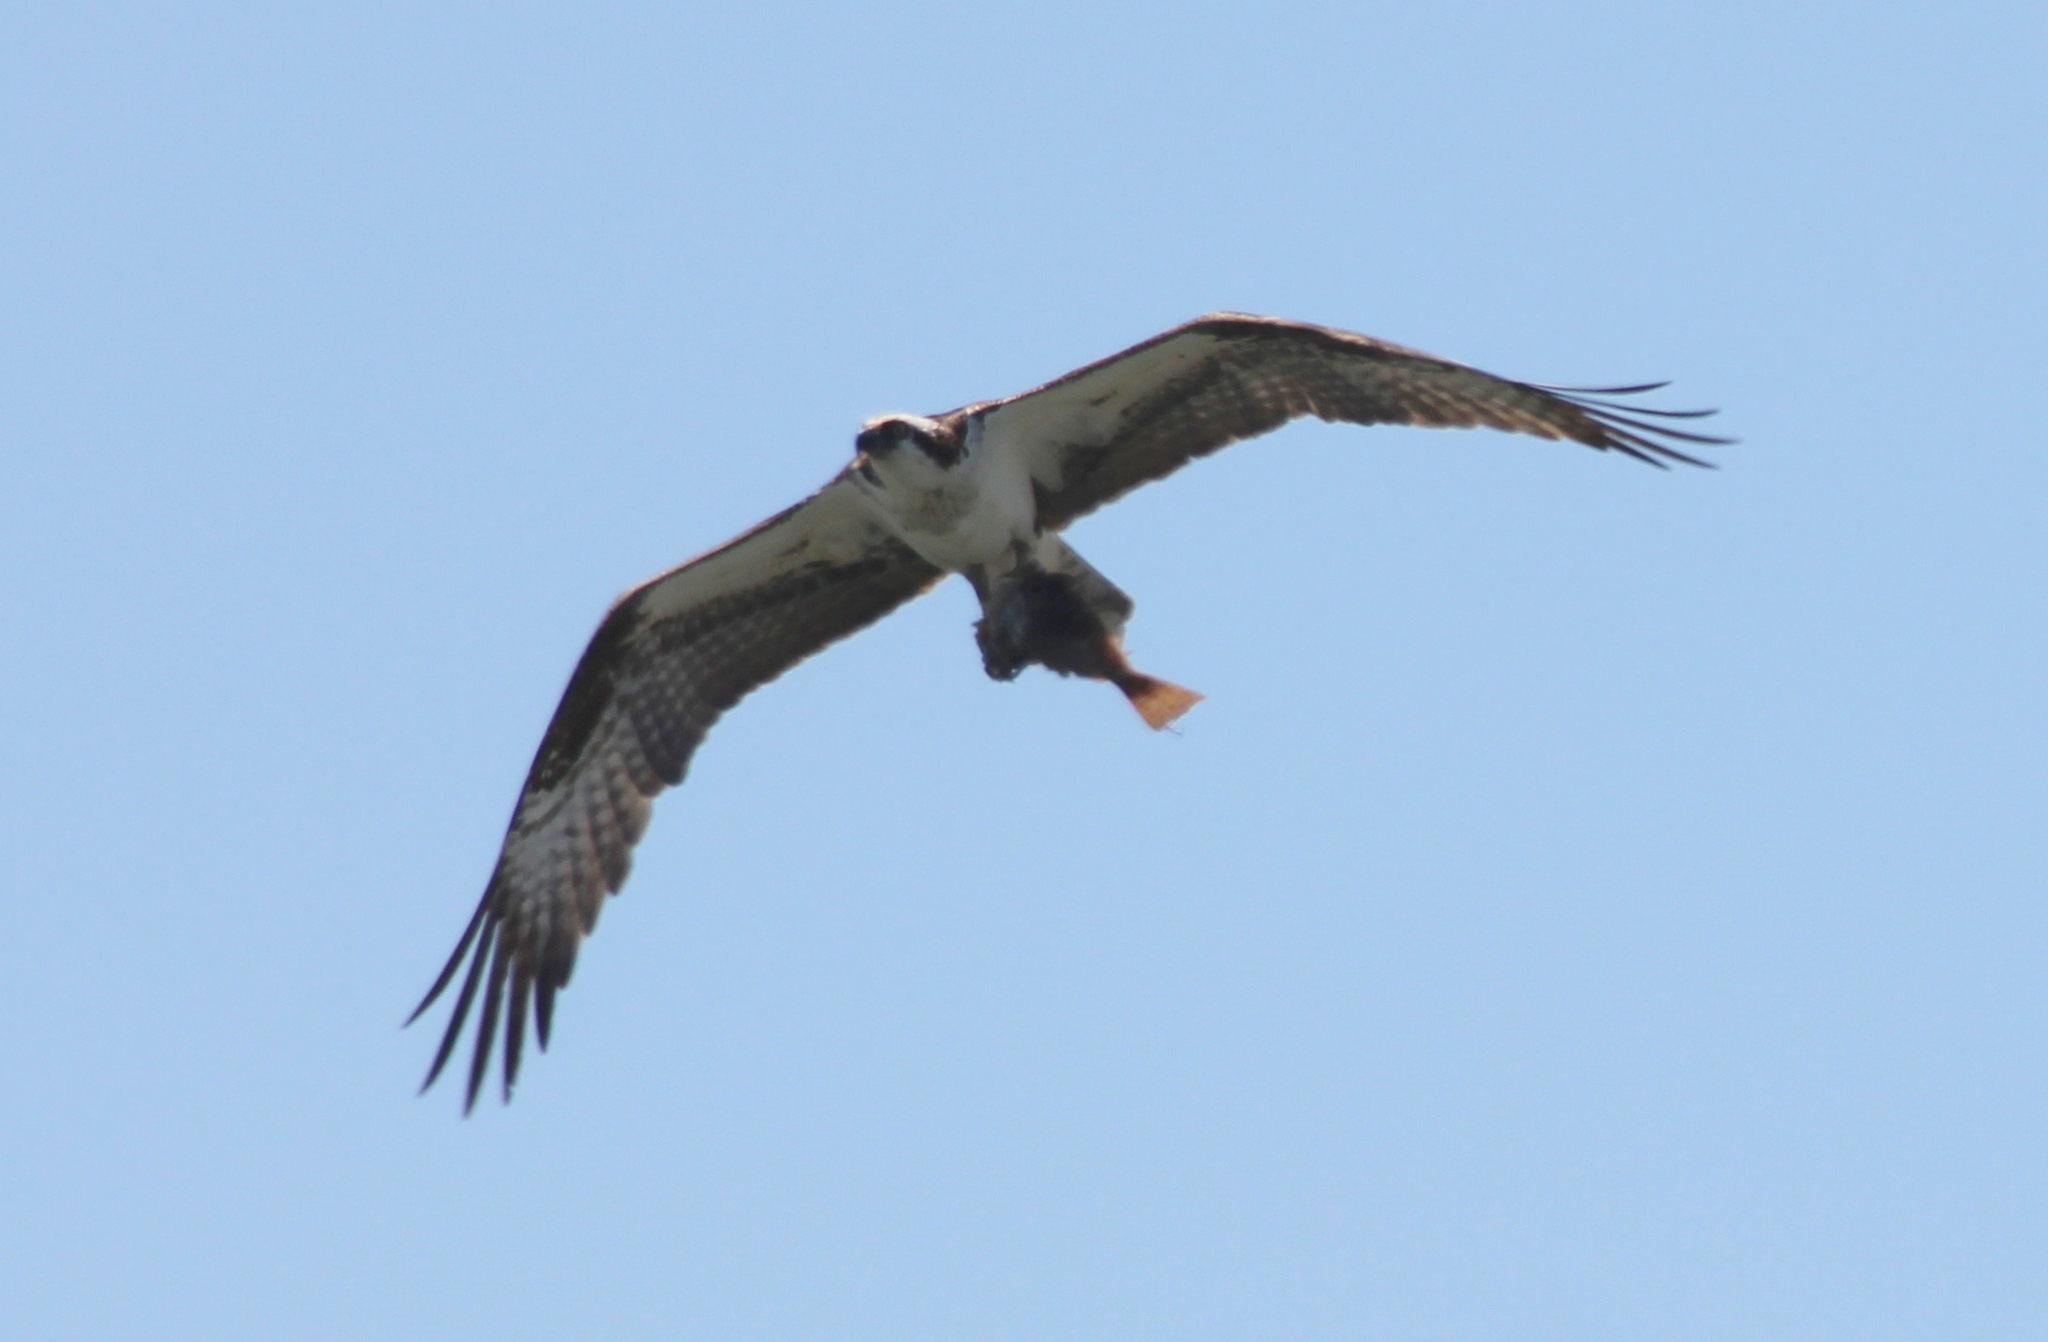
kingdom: Animalia
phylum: Chordata
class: Aves
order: Accipitriformes
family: Pandionidae
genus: Pandion
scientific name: Pandion haliaetus
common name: Osprey
